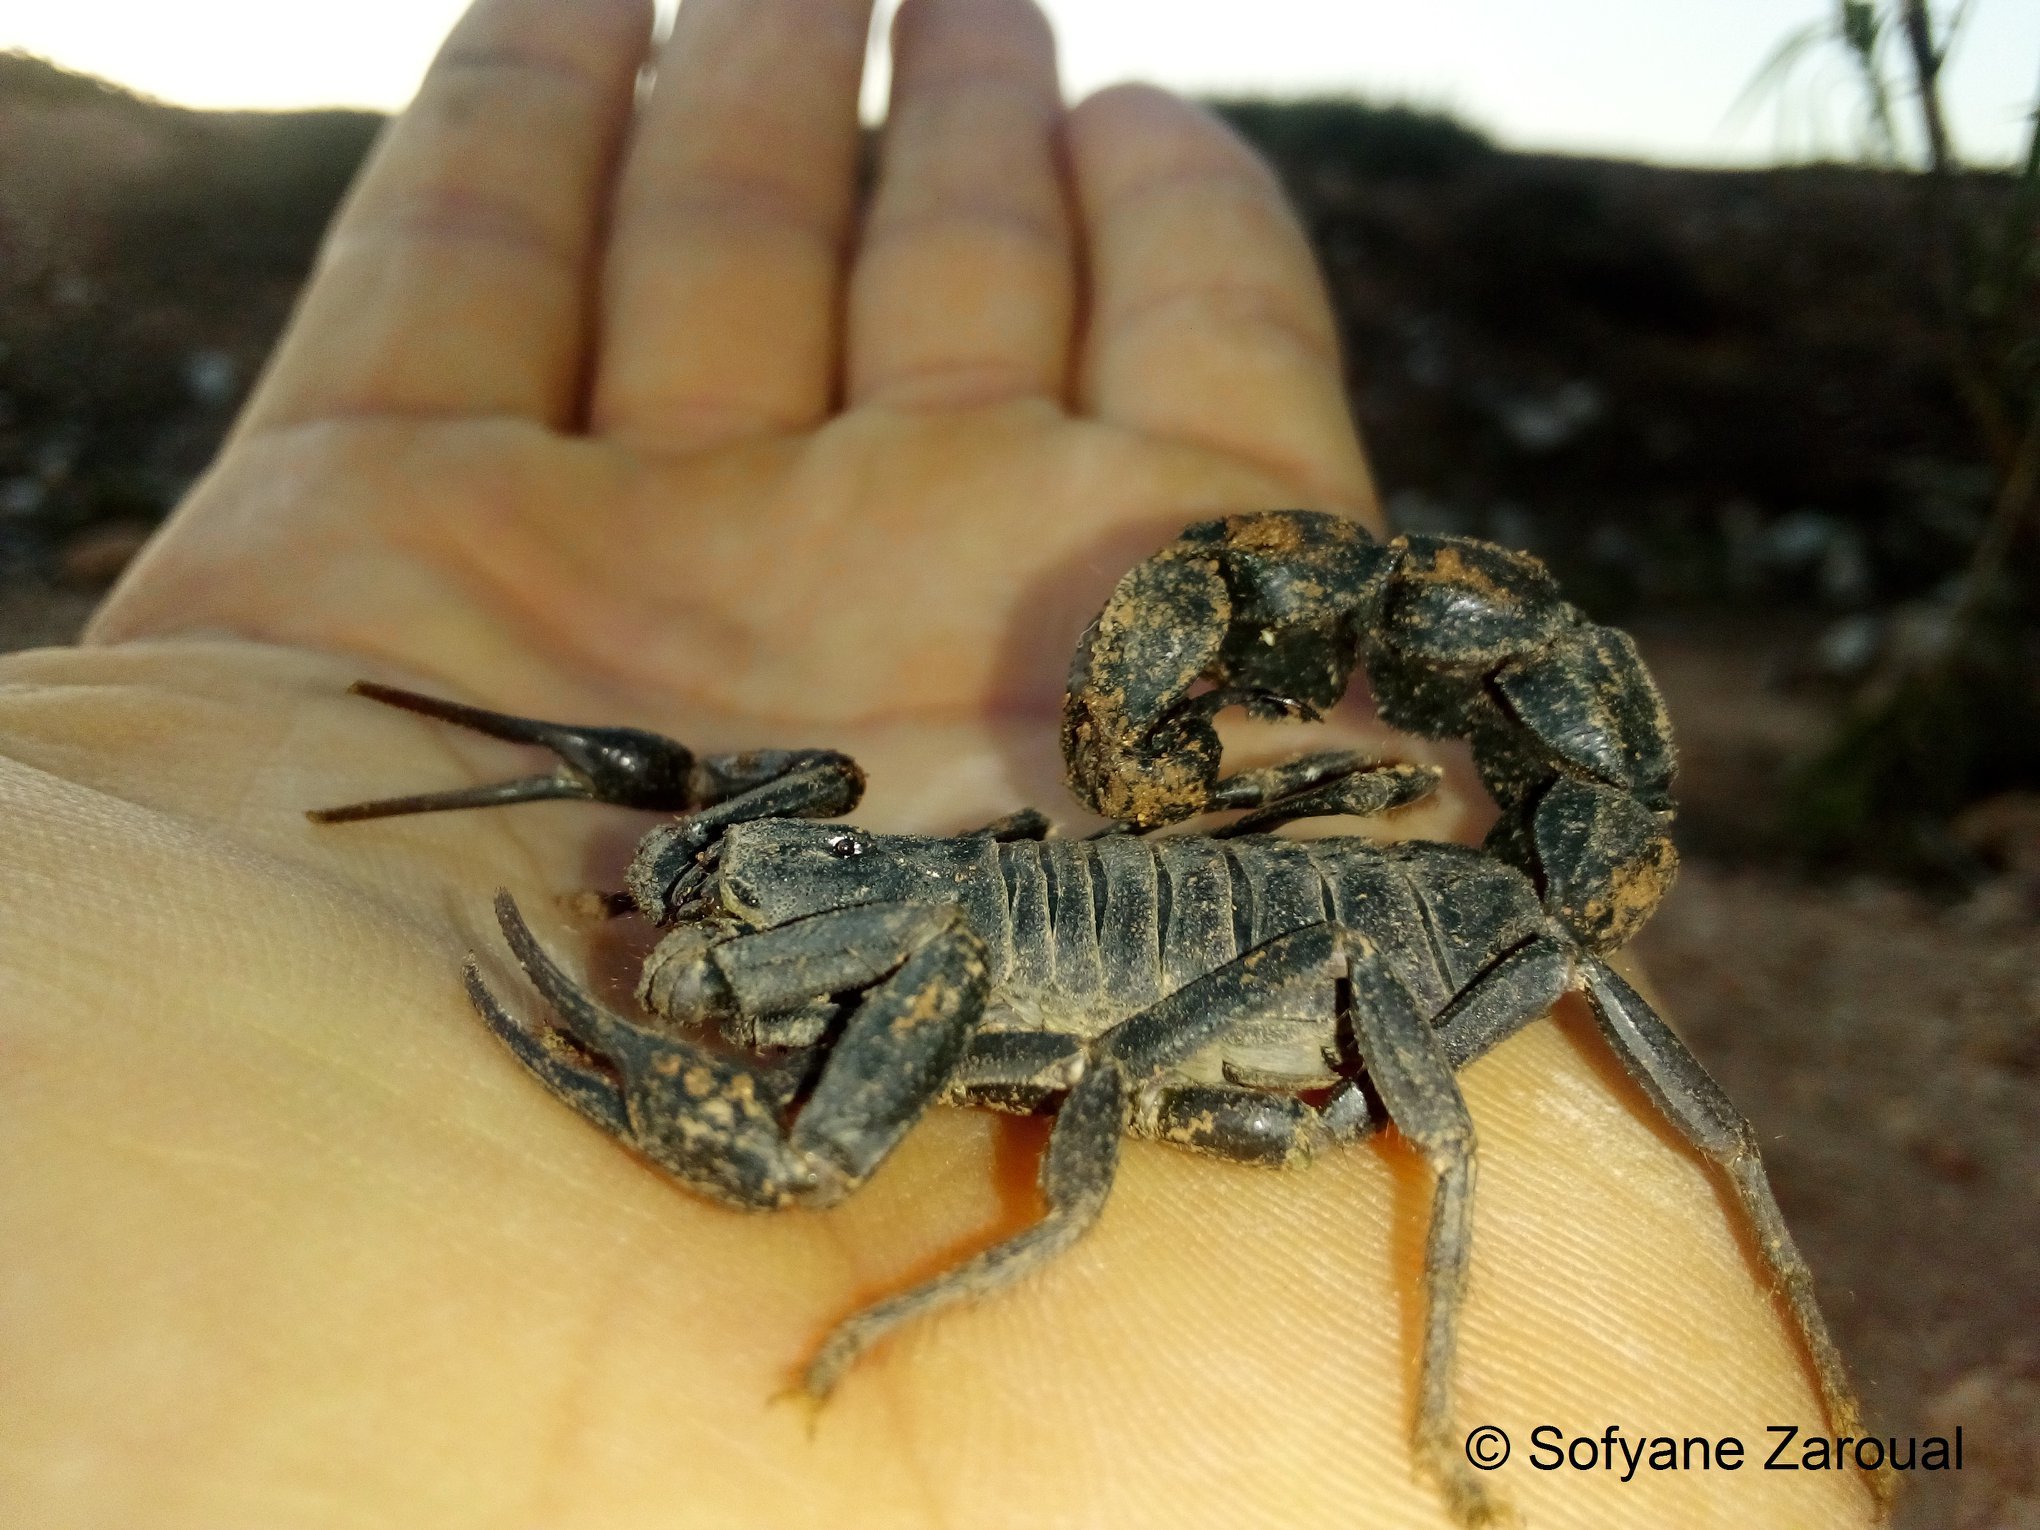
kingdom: Animalia
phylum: Arthropoda
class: Arachnida
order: Scorpiones
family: Buthidae
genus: Androctonus
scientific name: Androctonus bourdoni
